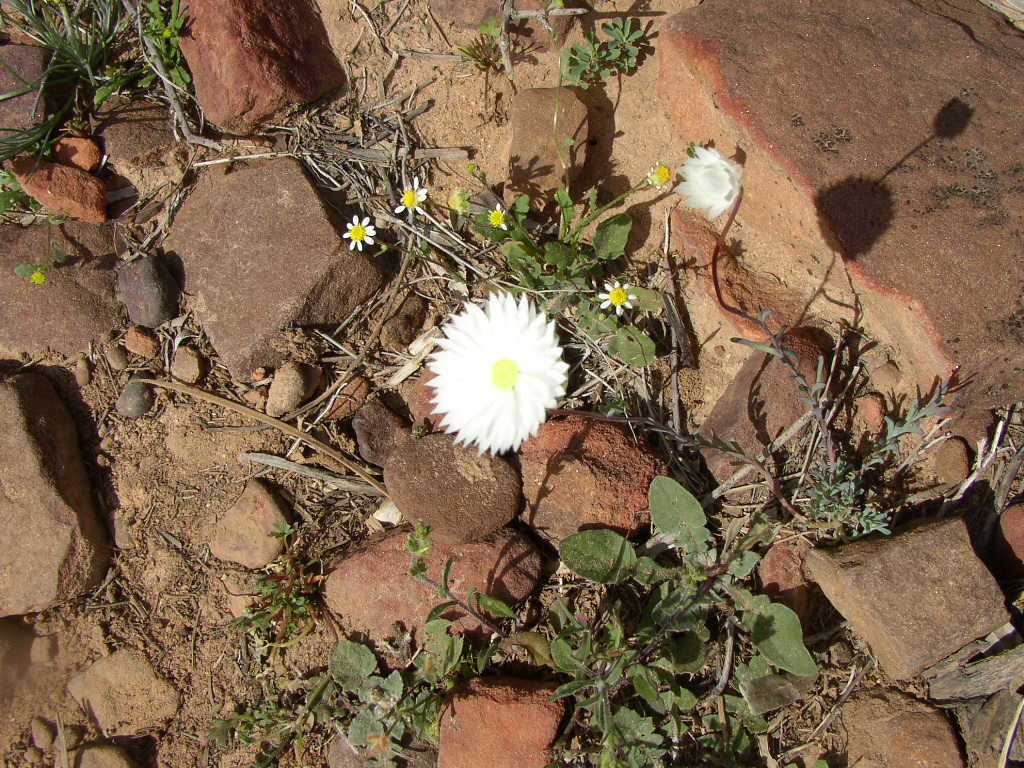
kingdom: Plantae
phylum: Tracheophyta
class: Magnoliopsida
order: Asterales
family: Asteraceae
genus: Rhodanthe
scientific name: Rhodanthe chlorocephala
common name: Rosy sunray
